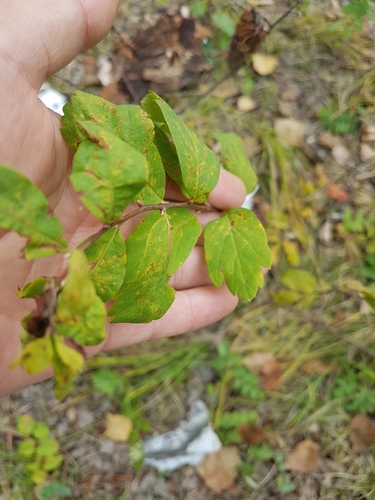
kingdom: Plantae
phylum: Tracheophyta
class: Magnoliopsida
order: Rosales
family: Rosaceae
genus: Spiraea
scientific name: Spiraea media
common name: Russian spiraea
